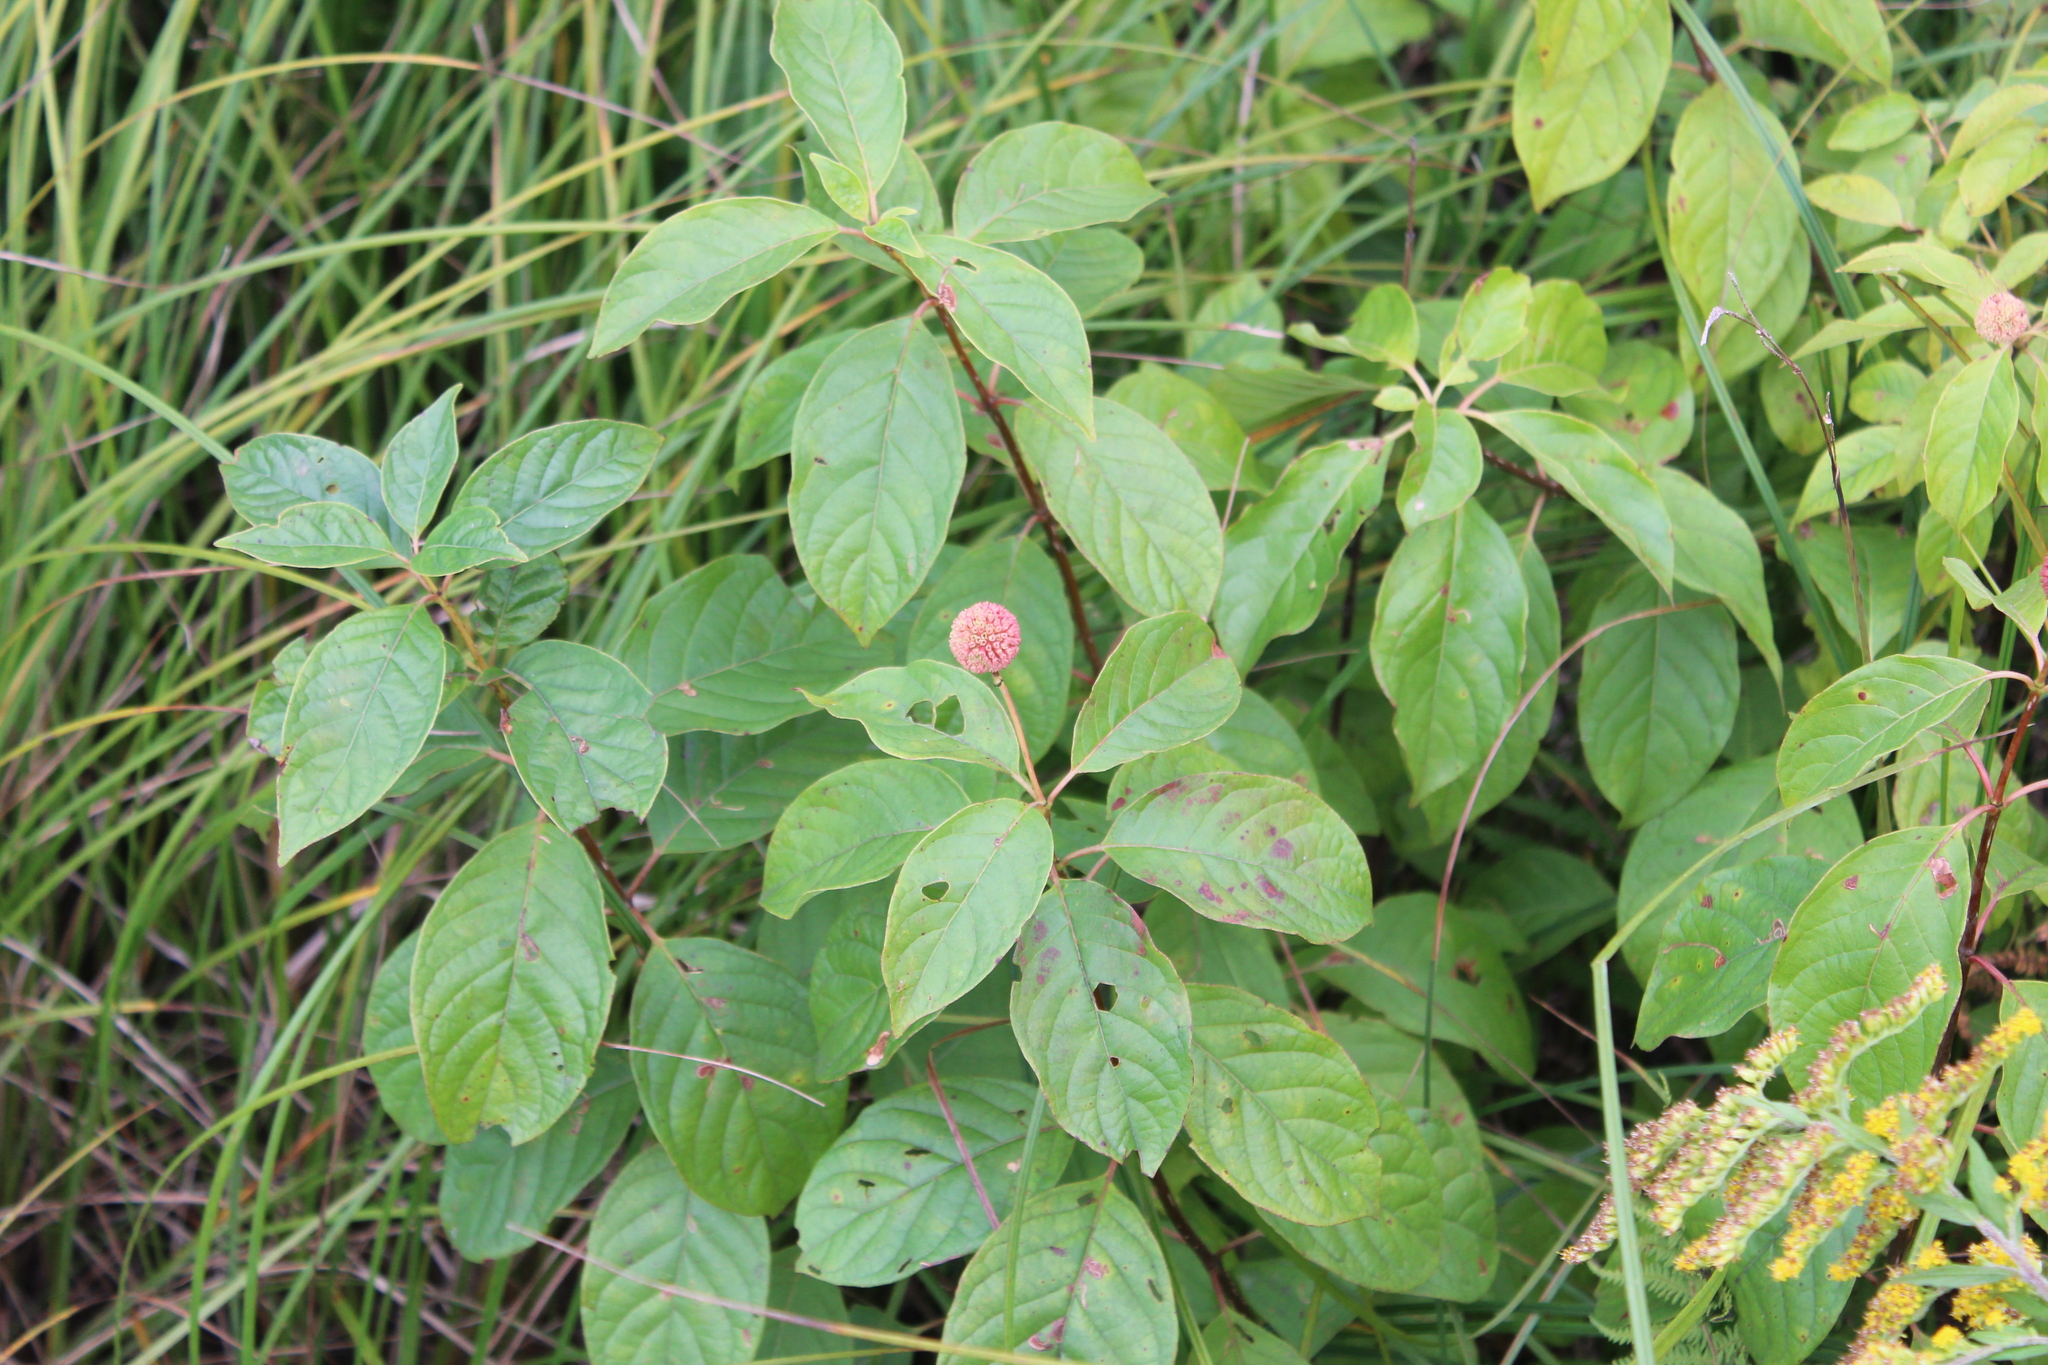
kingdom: Plantae
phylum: Tracheophyta
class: Magnoliopsida
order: Gentianales
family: Rubiaceae
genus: Cephalanthus
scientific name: Cephalanthus occidentalis
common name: Button-willow
